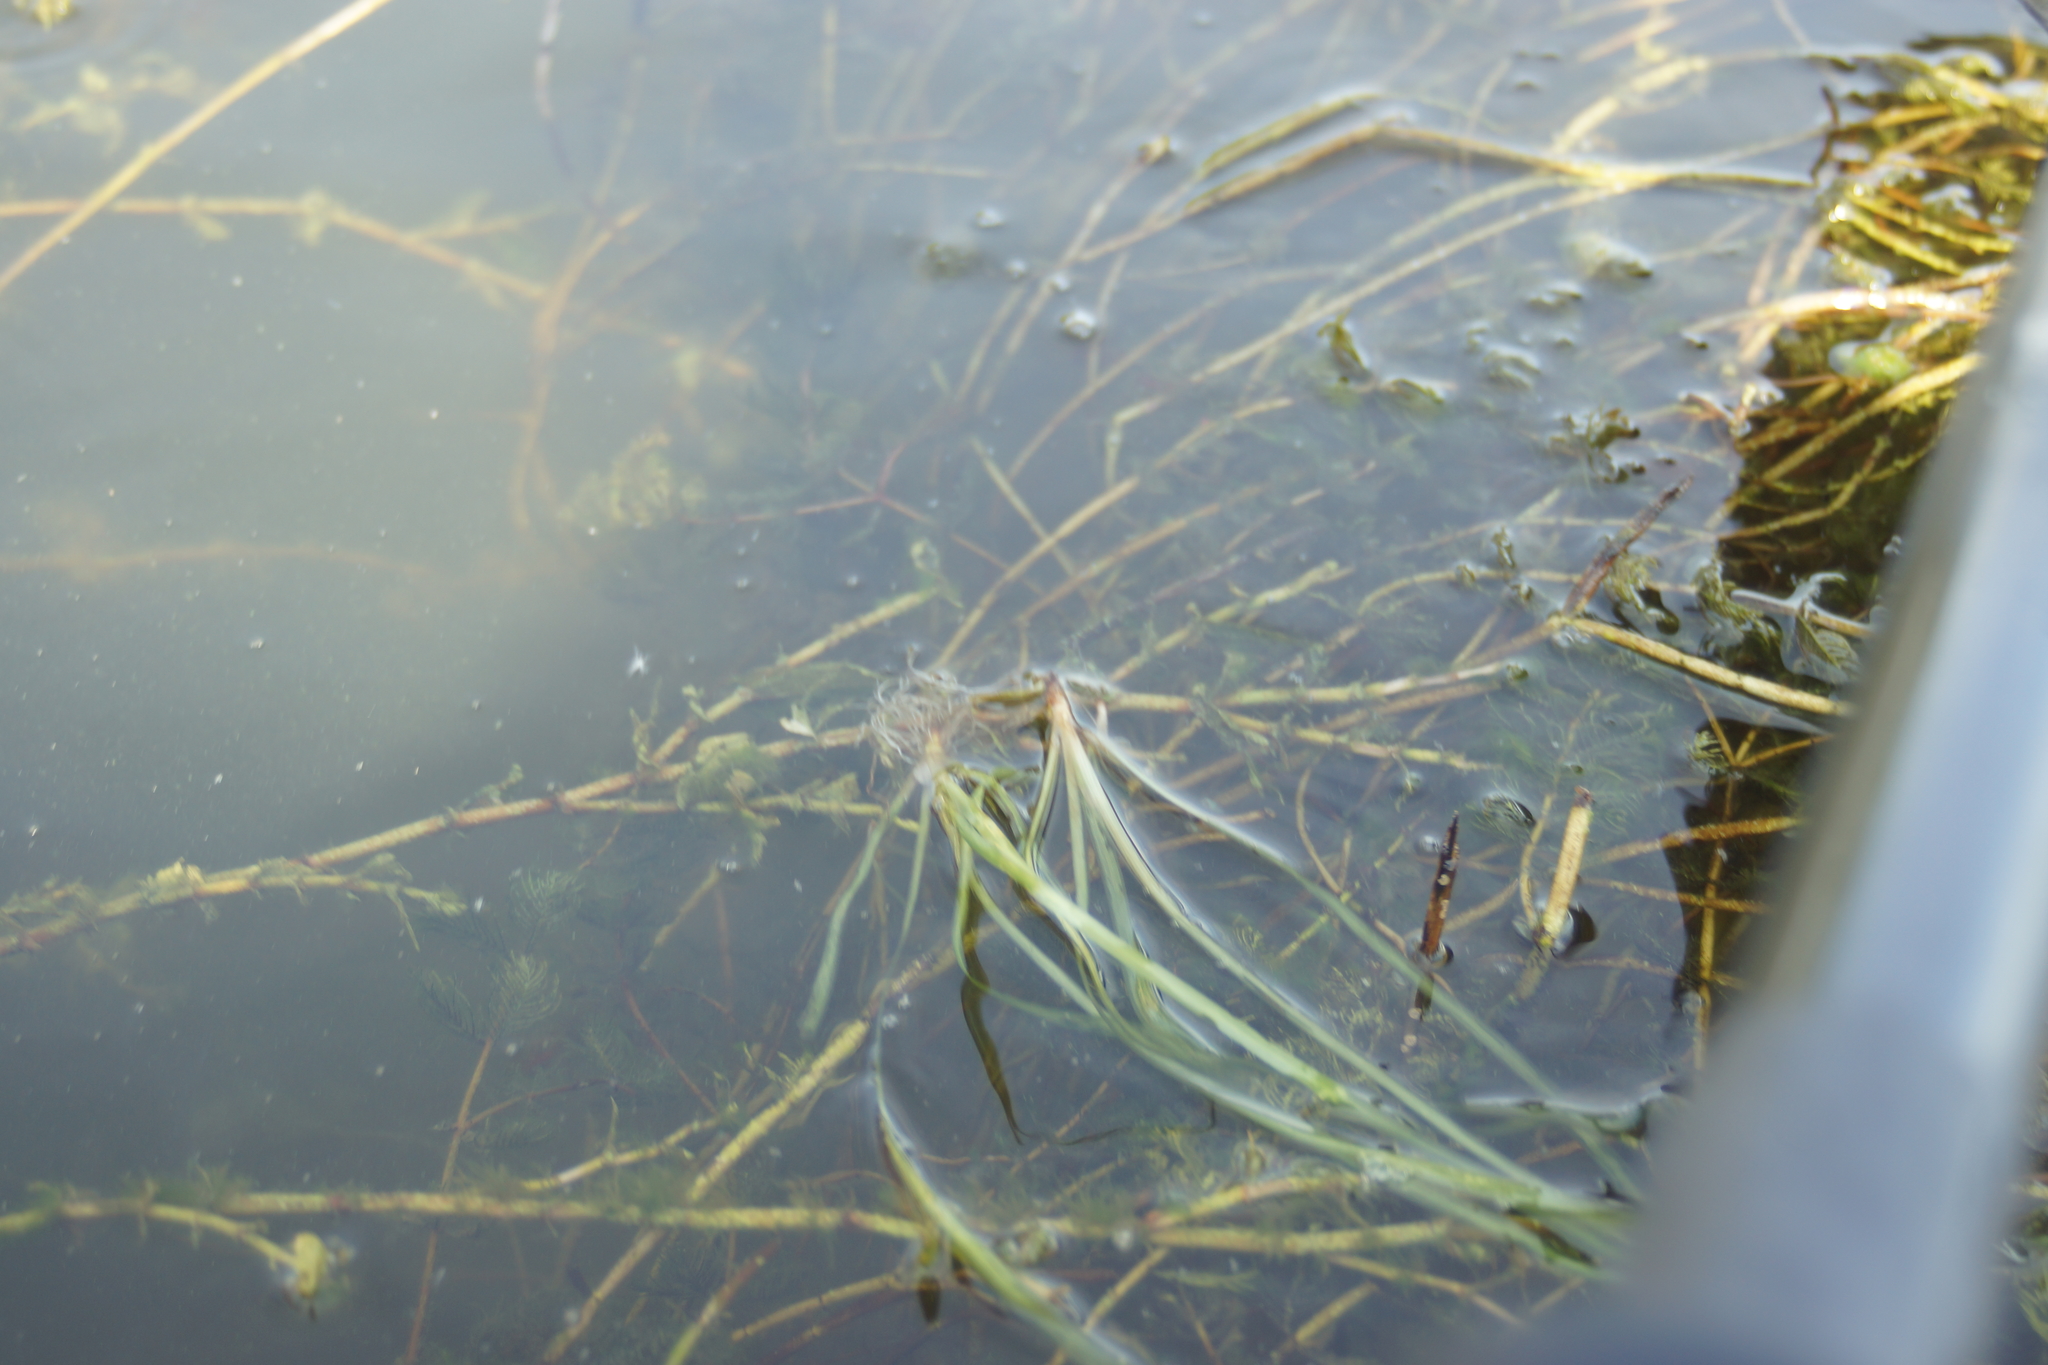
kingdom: Plantae
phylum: Tracheophyta
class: Liliopsida
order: Alismatales
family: Hydrocharitaceae
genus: Vallisneria
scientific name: Vallisneria spiralis
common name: Tapegrass
